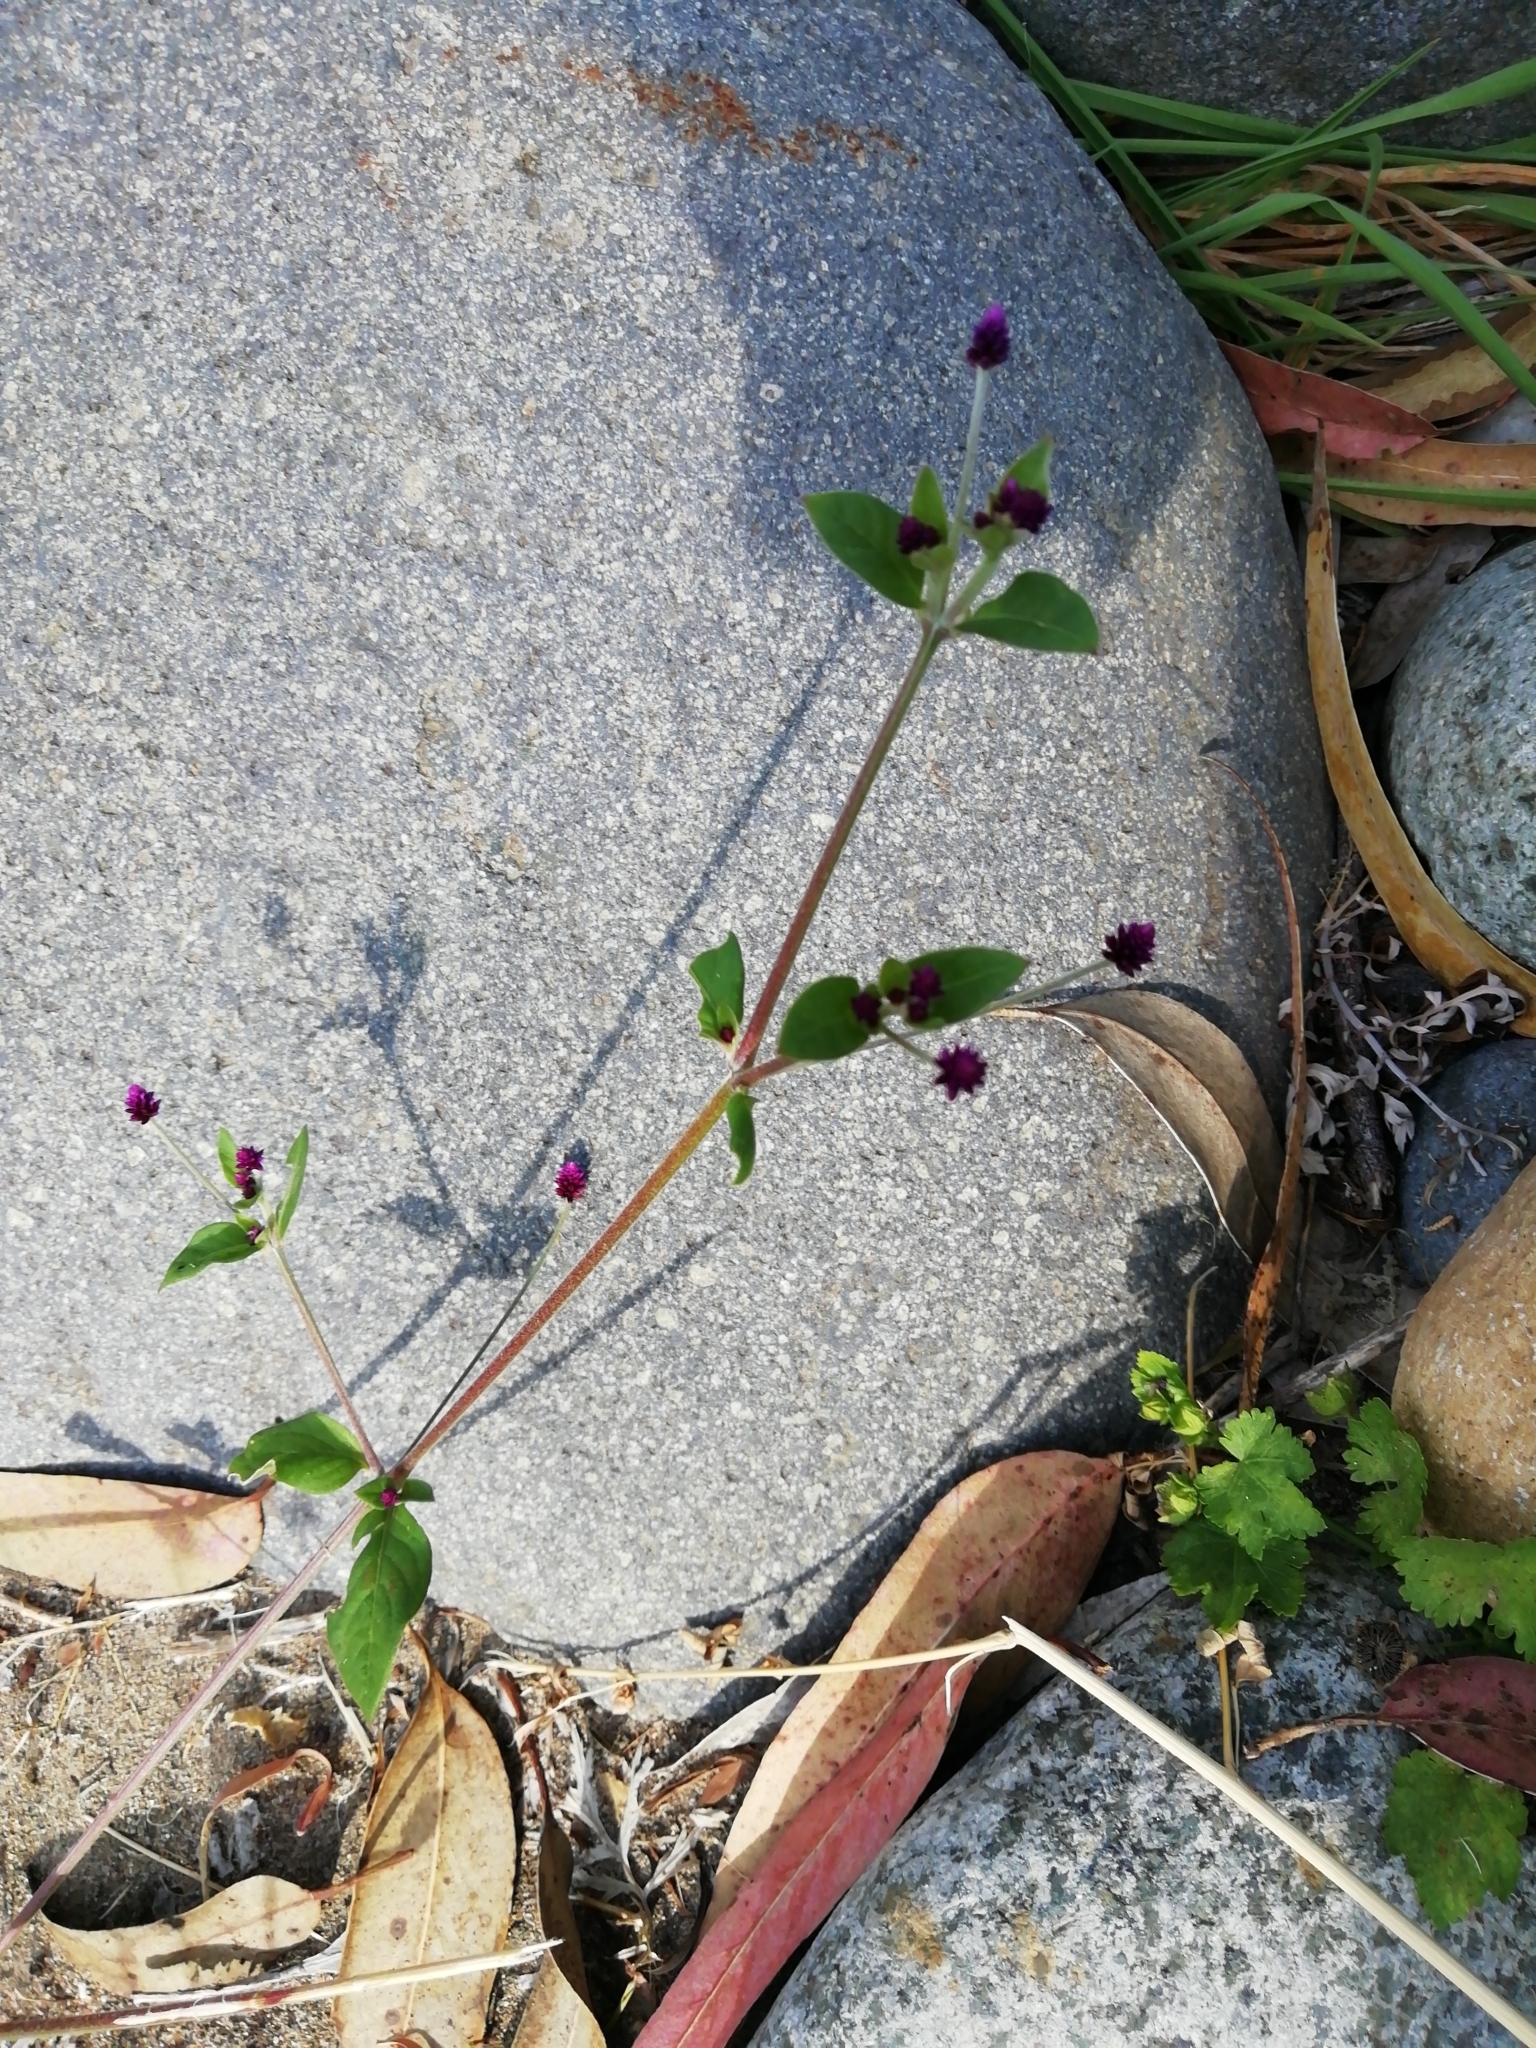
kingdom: Plantae
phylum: Tracheophyta
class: Magnoliopsida
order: Caryophyllales
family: Amaranthaceae
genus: Alternanthera
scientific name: Alternanthera porrigens
